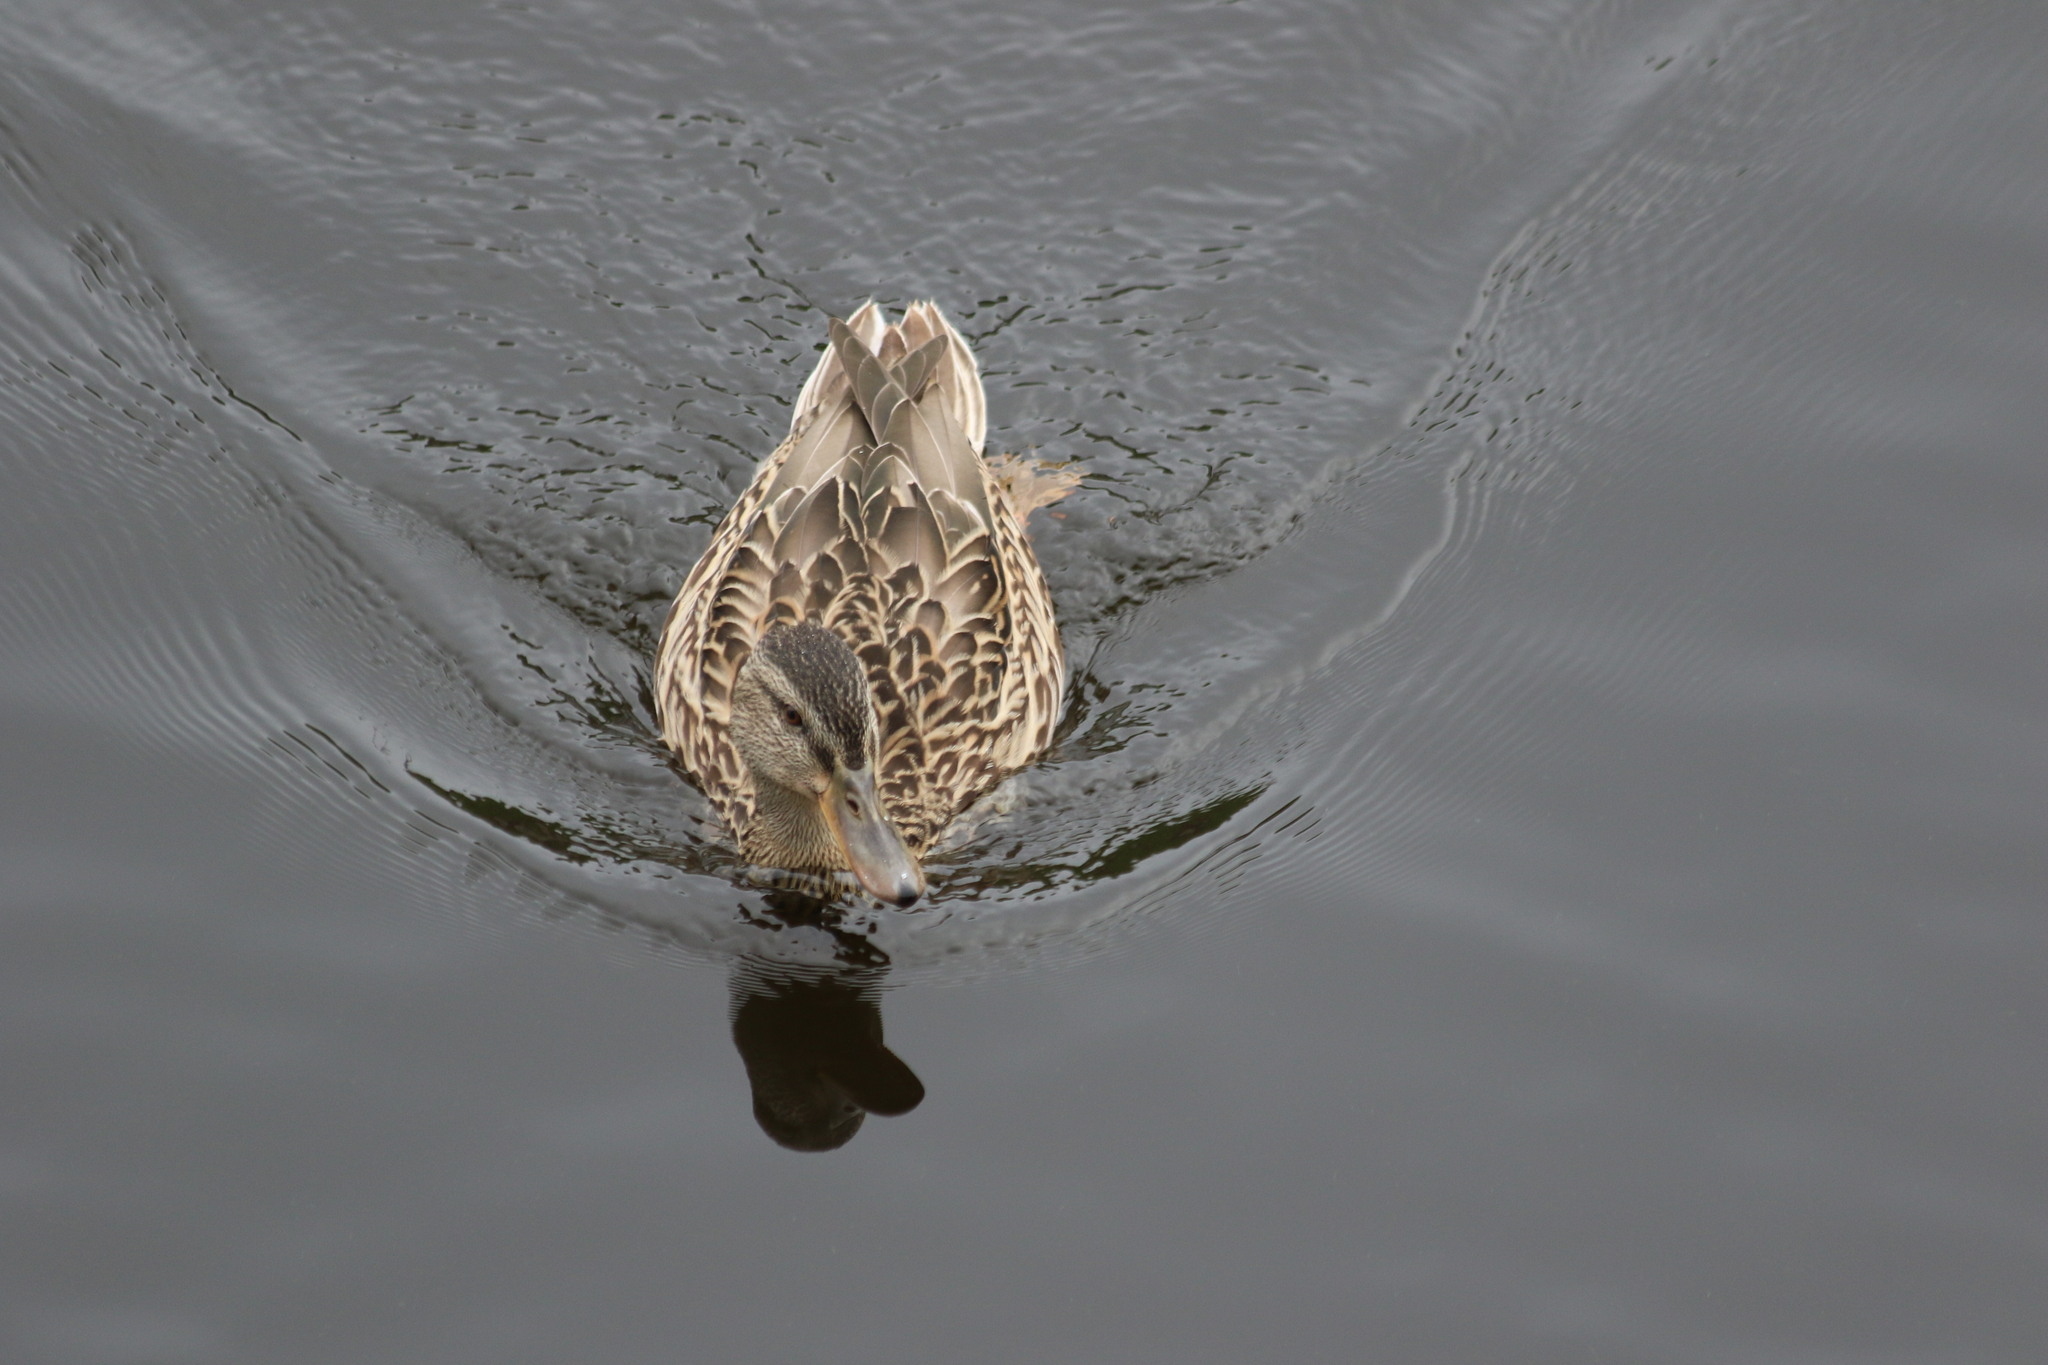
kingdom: Animalia
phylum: Chordata
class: Aves
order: Anseriformes
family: Anatidae
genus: Anas
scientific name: Anas platyrhynchos
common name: Mallard
